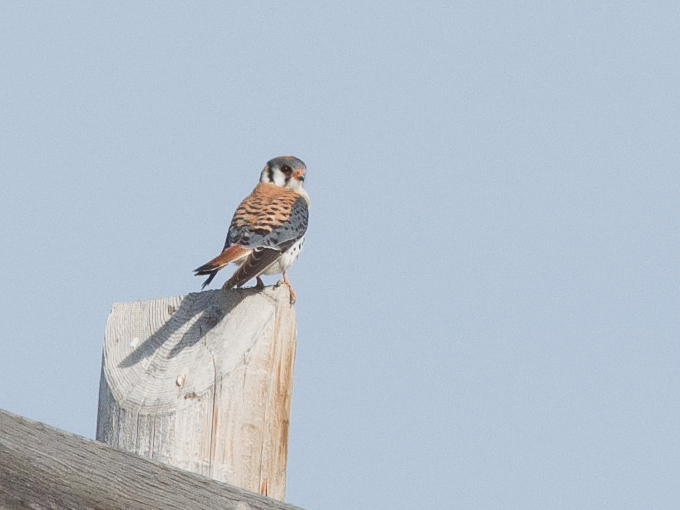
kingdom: Animalia
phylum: Chordata
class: Aves
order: Falconiformes
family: Falconidae
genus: Falco
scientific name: Falco sparverius
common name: American kestrel
